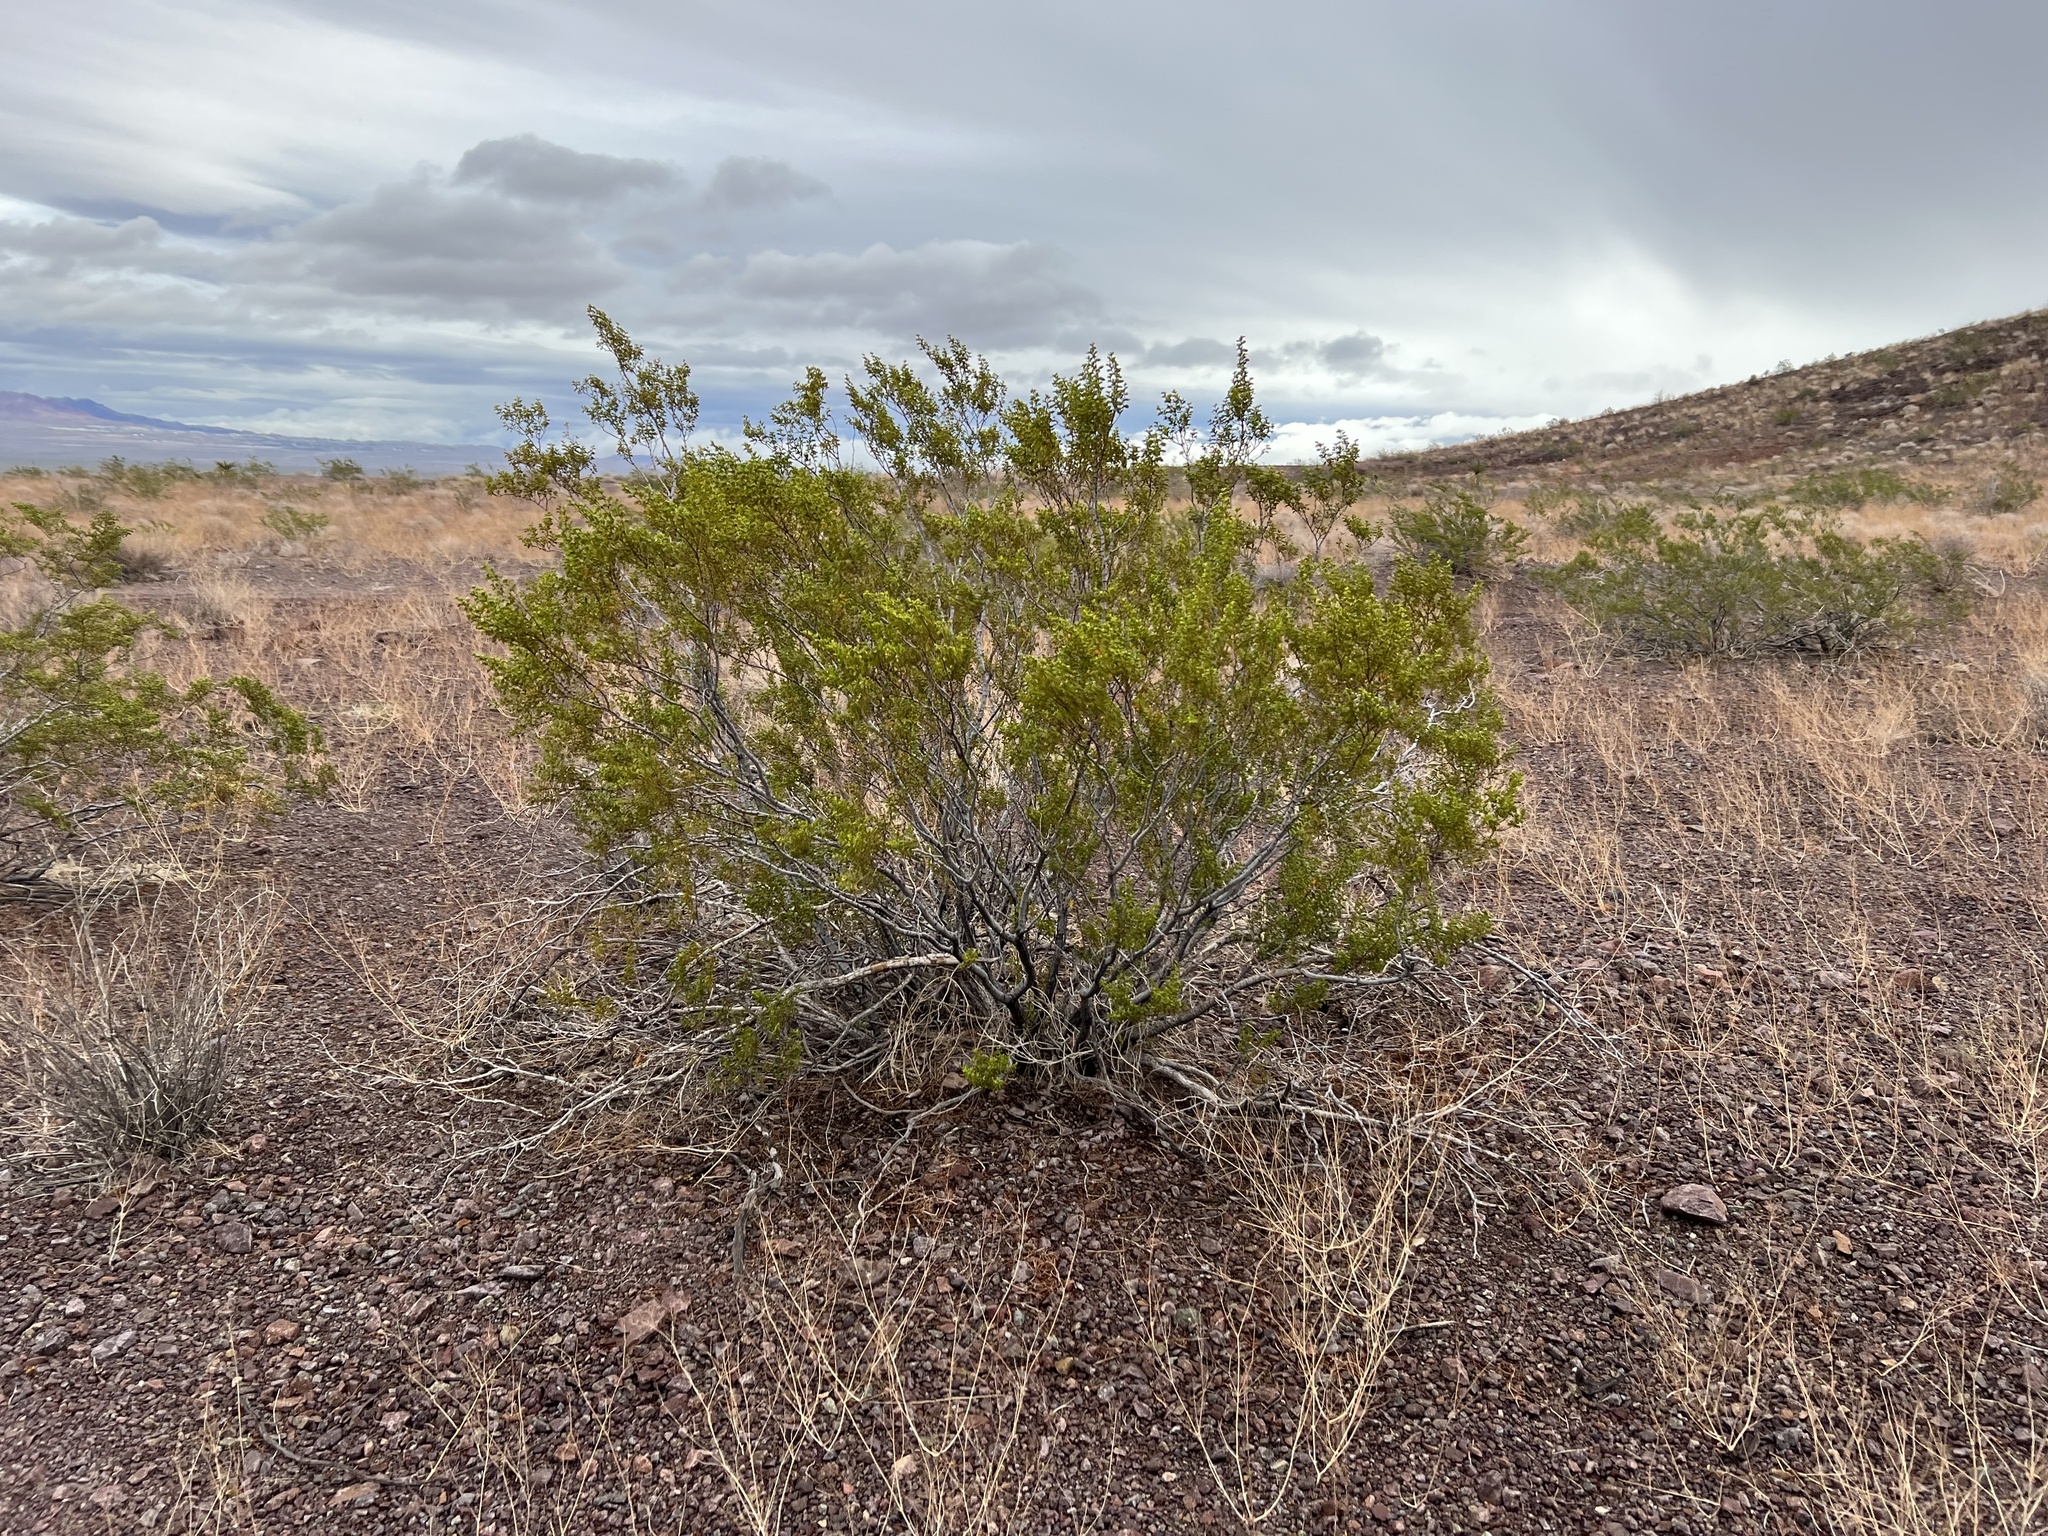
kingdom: Plantae
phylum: Tracheophyta
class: Magnoliopsida
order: Zygophyllales
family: Zygophyllaceae
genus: Larrea
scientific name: Larrea tridentata
